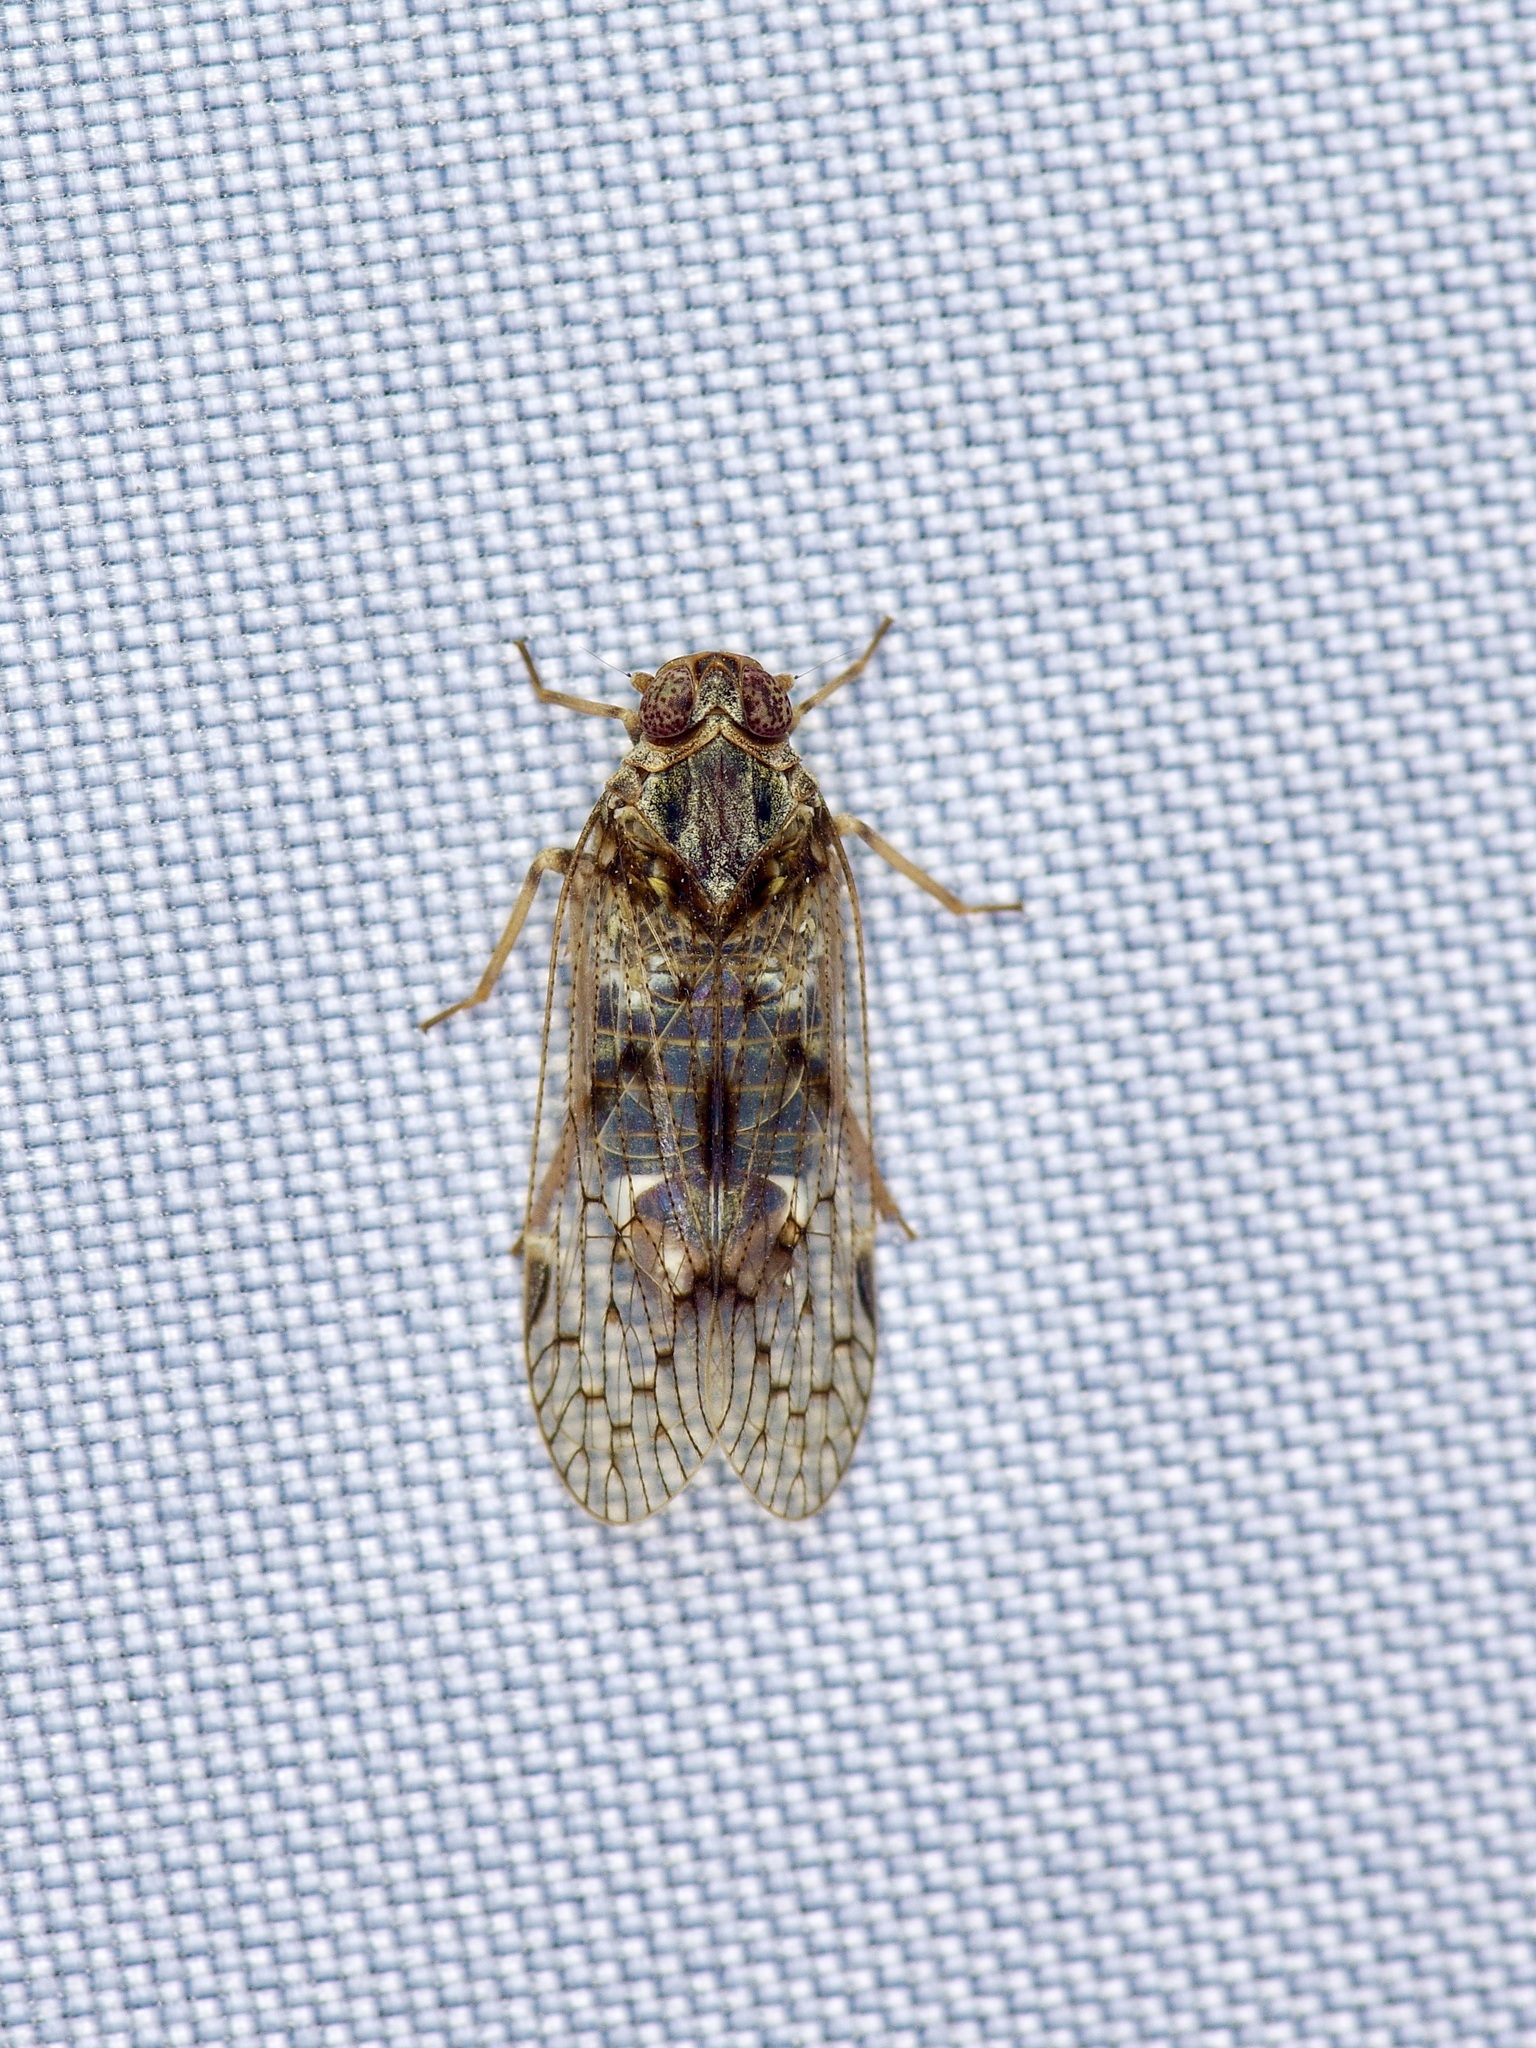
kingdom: Animalia
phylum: Arthropoda
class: Insecta
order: Hemiptera
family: Cixiidae
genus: Melanoliarus
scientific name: Melanoliarus aridus
